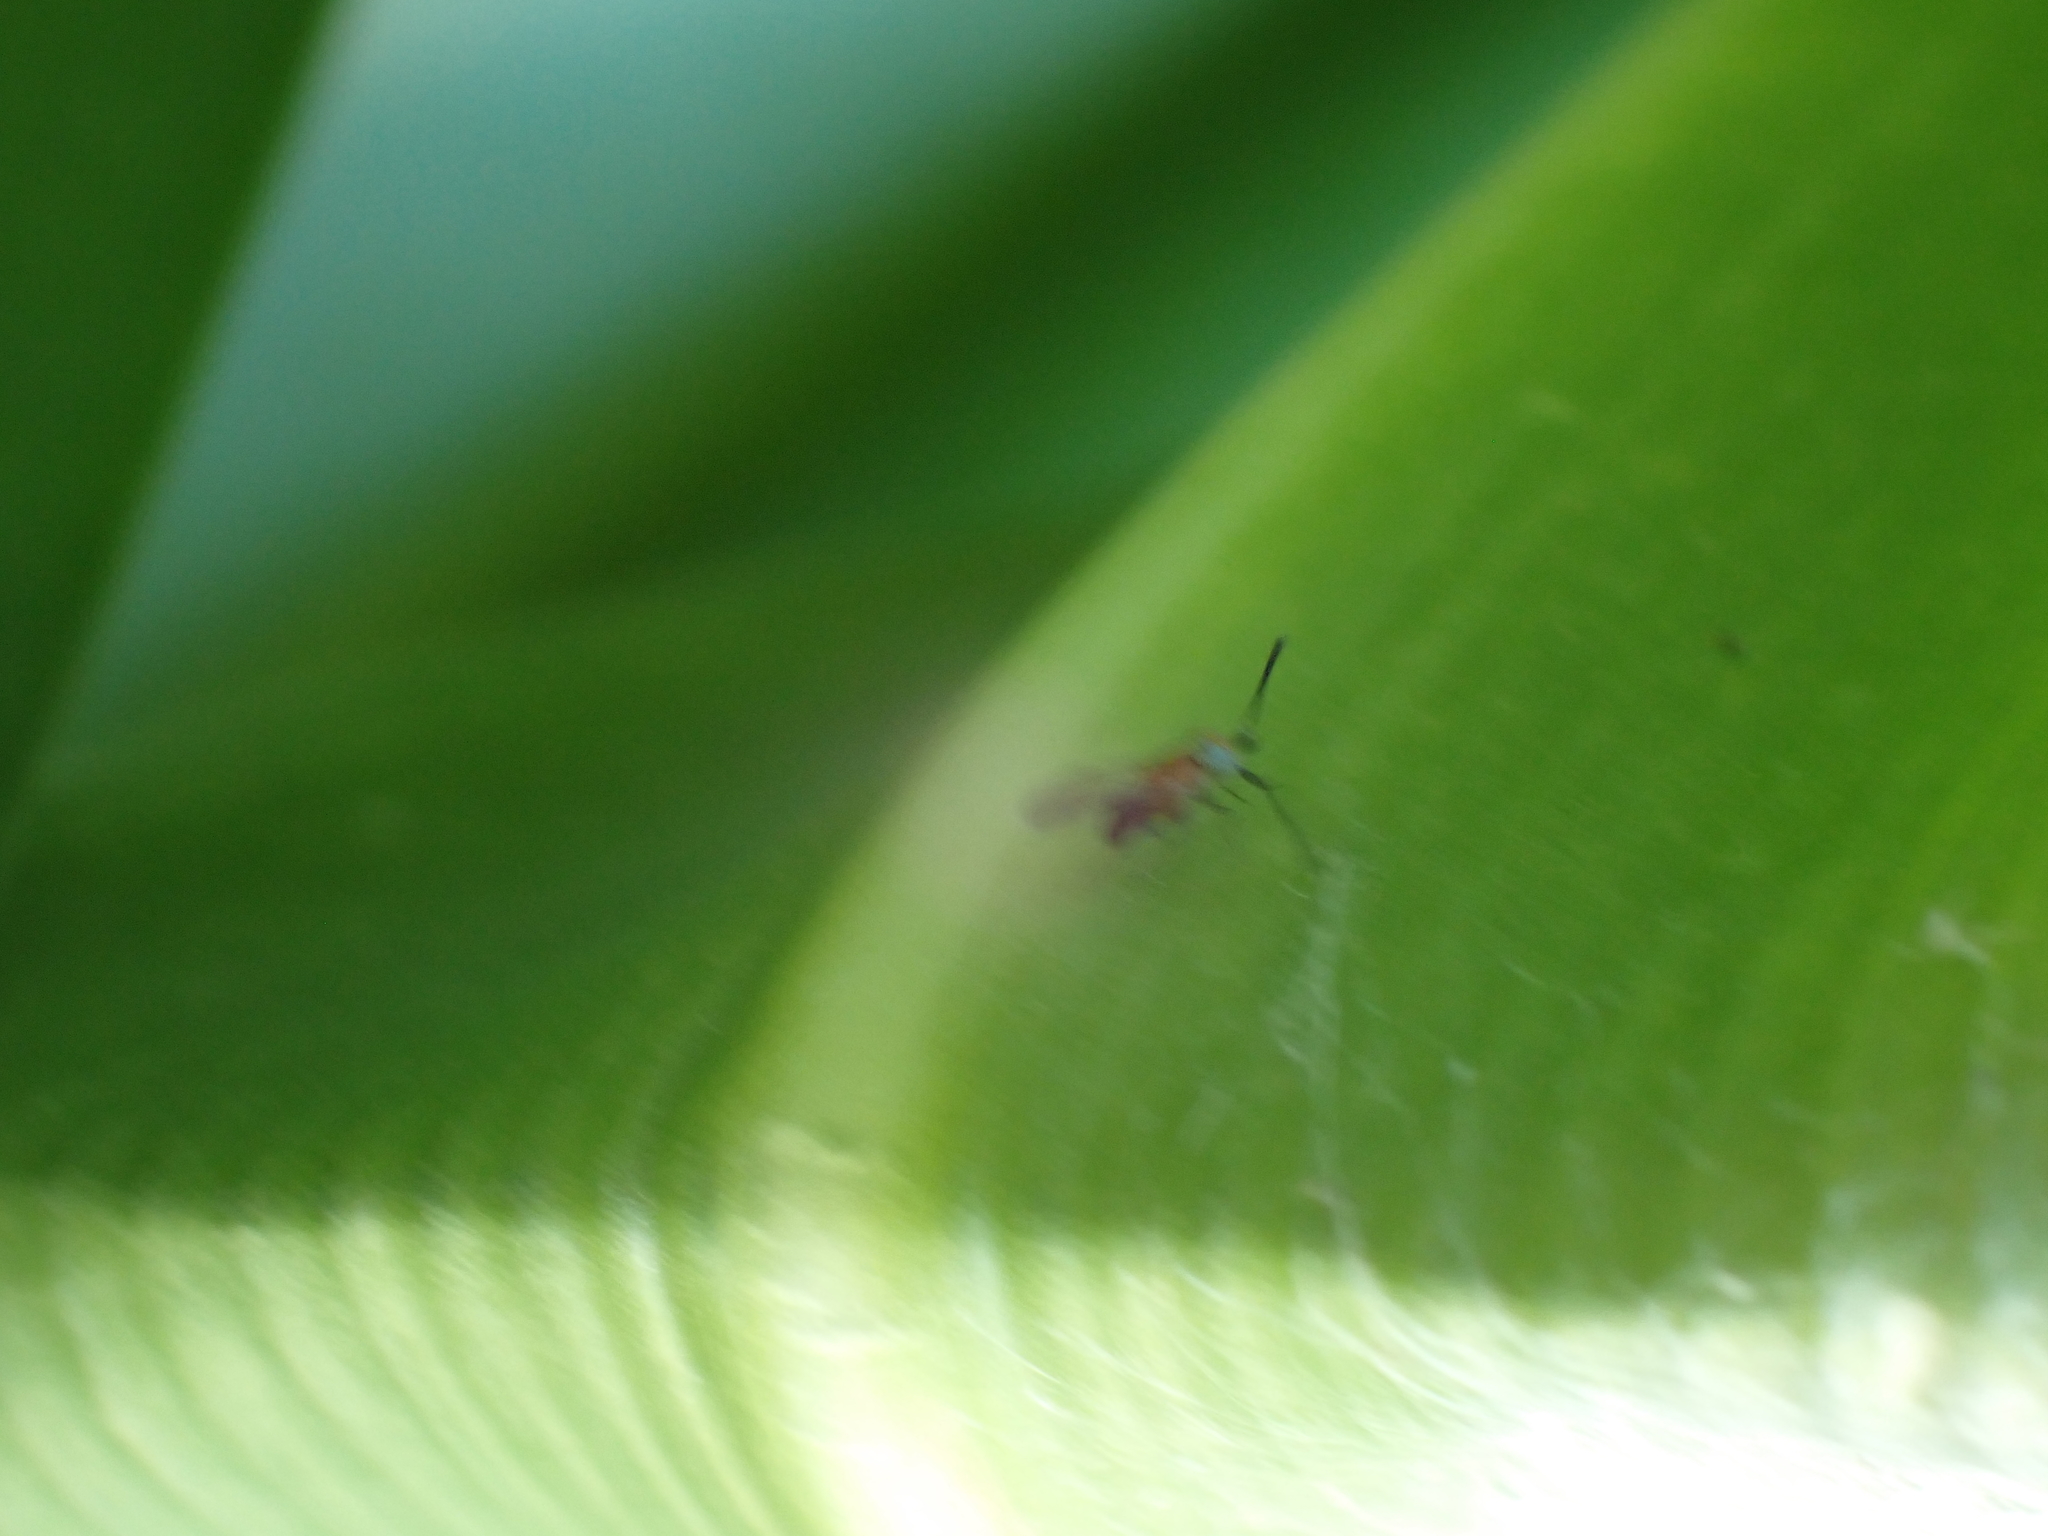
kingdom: Animalia
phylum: Arthropoda
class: Insecta
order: Hymenoptera
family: Encyrtidae
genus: Anagyrus
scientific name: Anagyrus fusciventris
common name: Encyrtid parasitoid wasp
